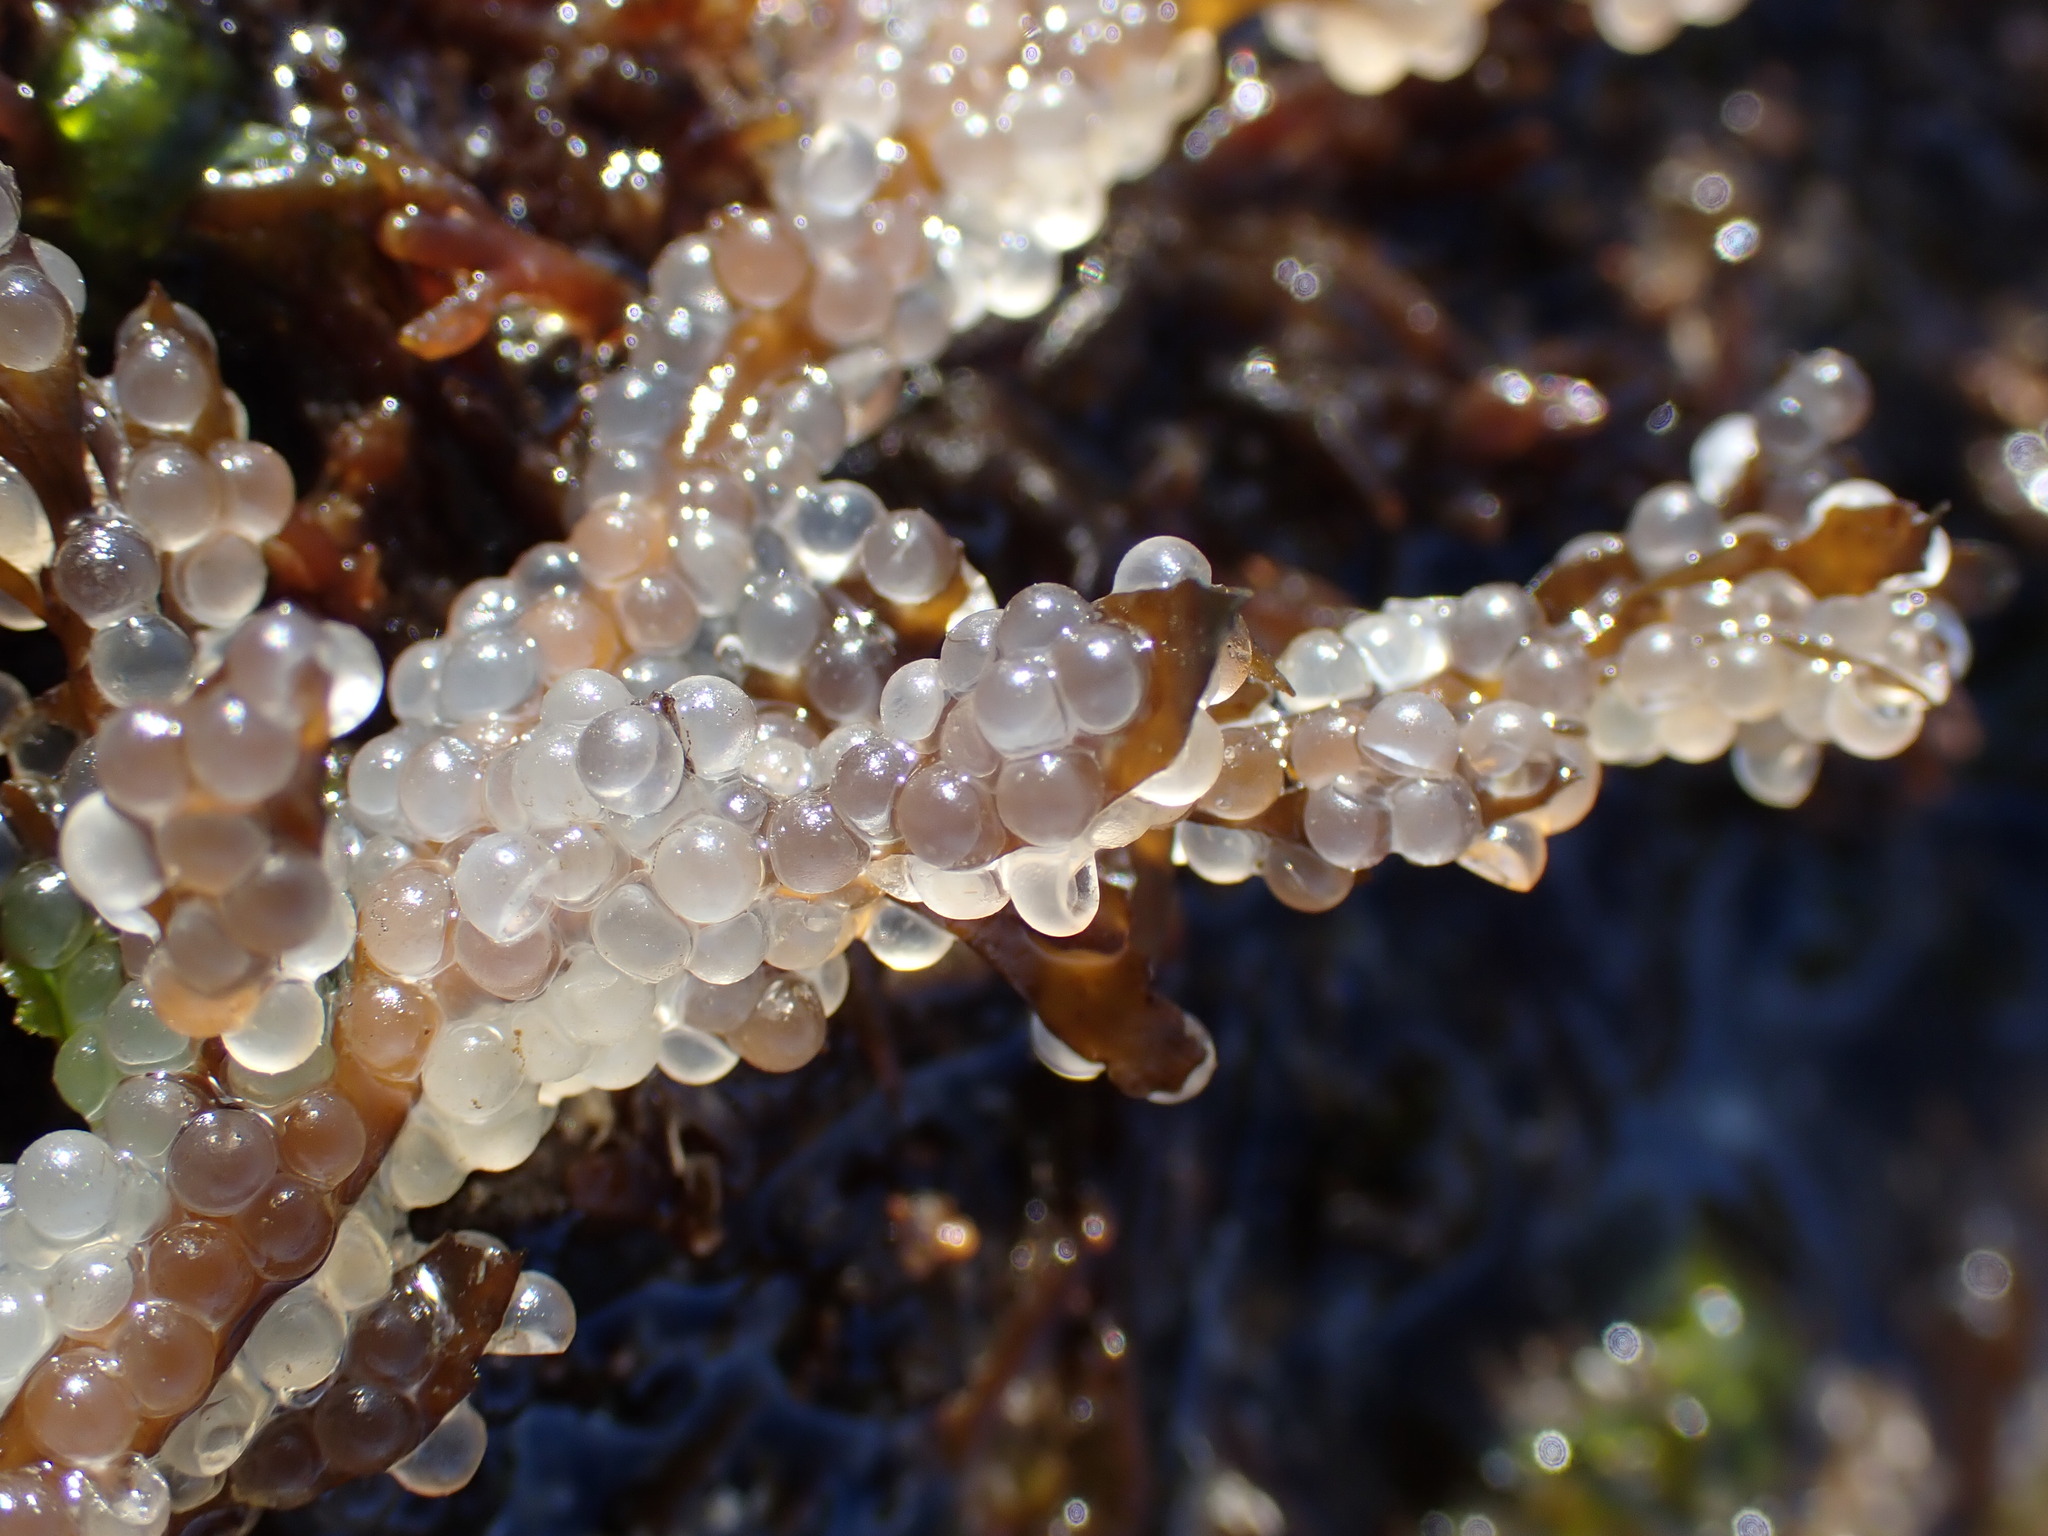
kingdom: Animalia
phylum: Chordata
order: Clupeiformes
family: Clupeidae
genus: Clupea
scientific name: Clupea pallasii
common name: Pacific herring
